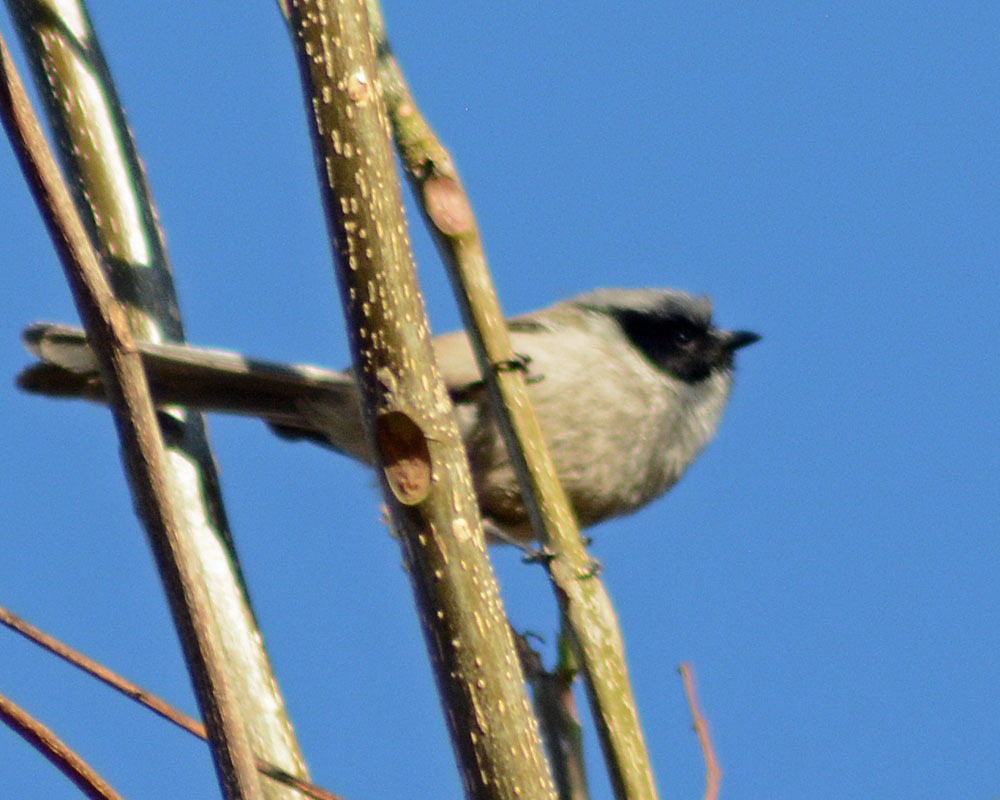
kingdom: Animalia
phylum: Chordata
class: Aves
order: Passeriformes
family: Aegithalidae
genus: Psaltriparus
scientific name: Psaltriparus minimus
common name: American bushtit
